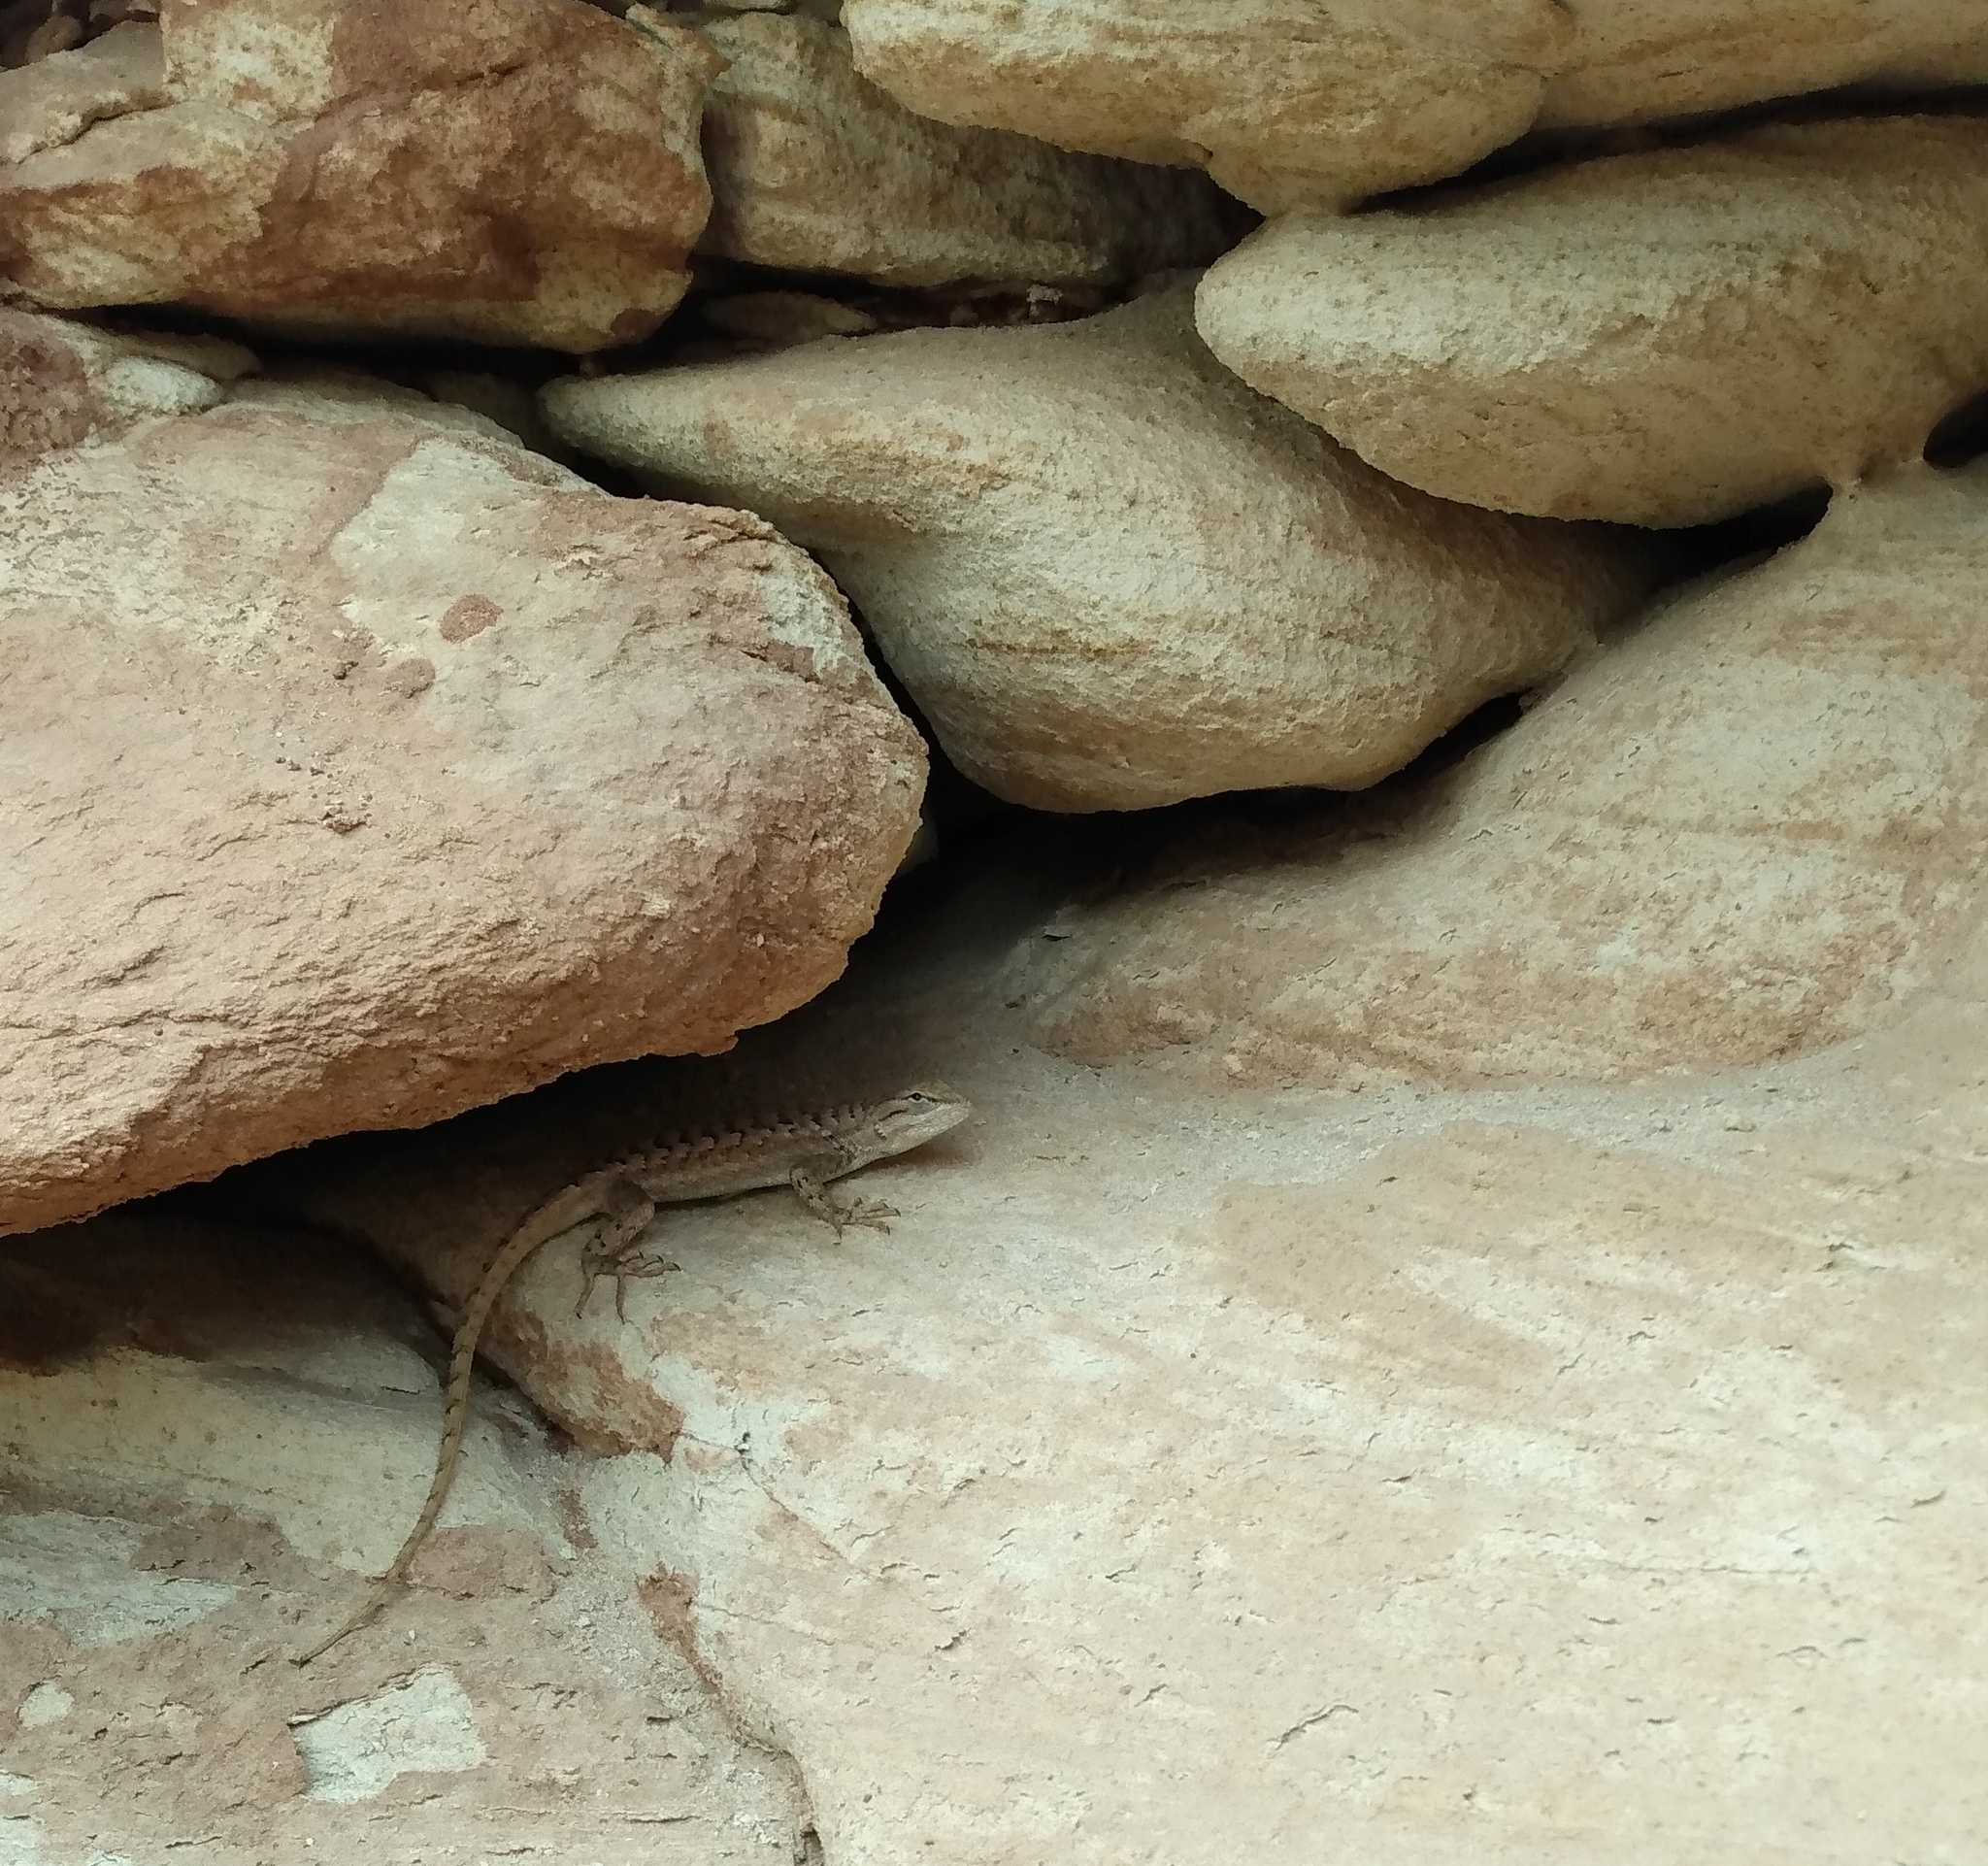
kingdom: Animalia
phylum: Chordata
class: Squamata
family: Phrynosomatidae
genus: Sceloporus
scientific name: Sceloporus tristichus
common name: Plateau fence lizard
